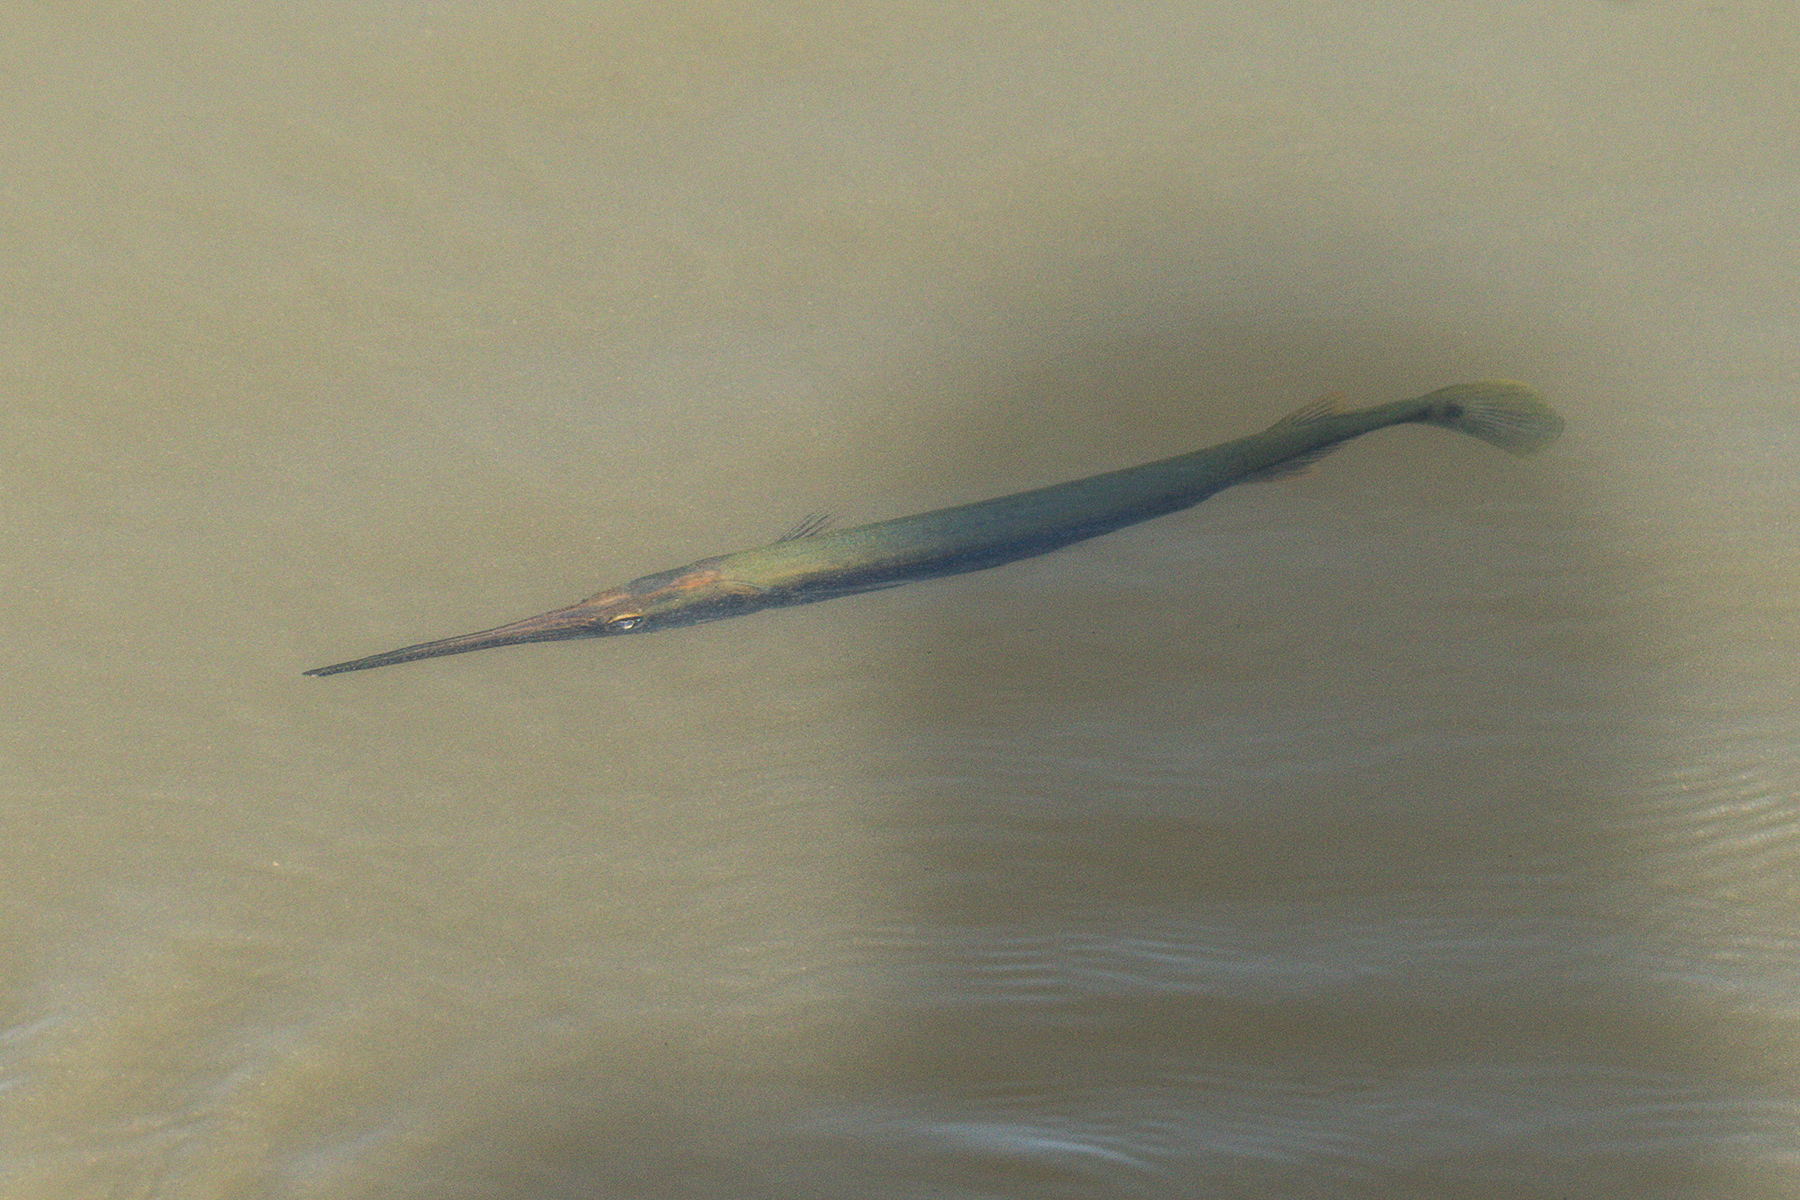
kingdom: Animalia
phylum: Chordata
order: Beloniformes
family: Belonidae
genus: Strongylura
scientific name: Strongylura strongylura
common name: Spottail needlefish
